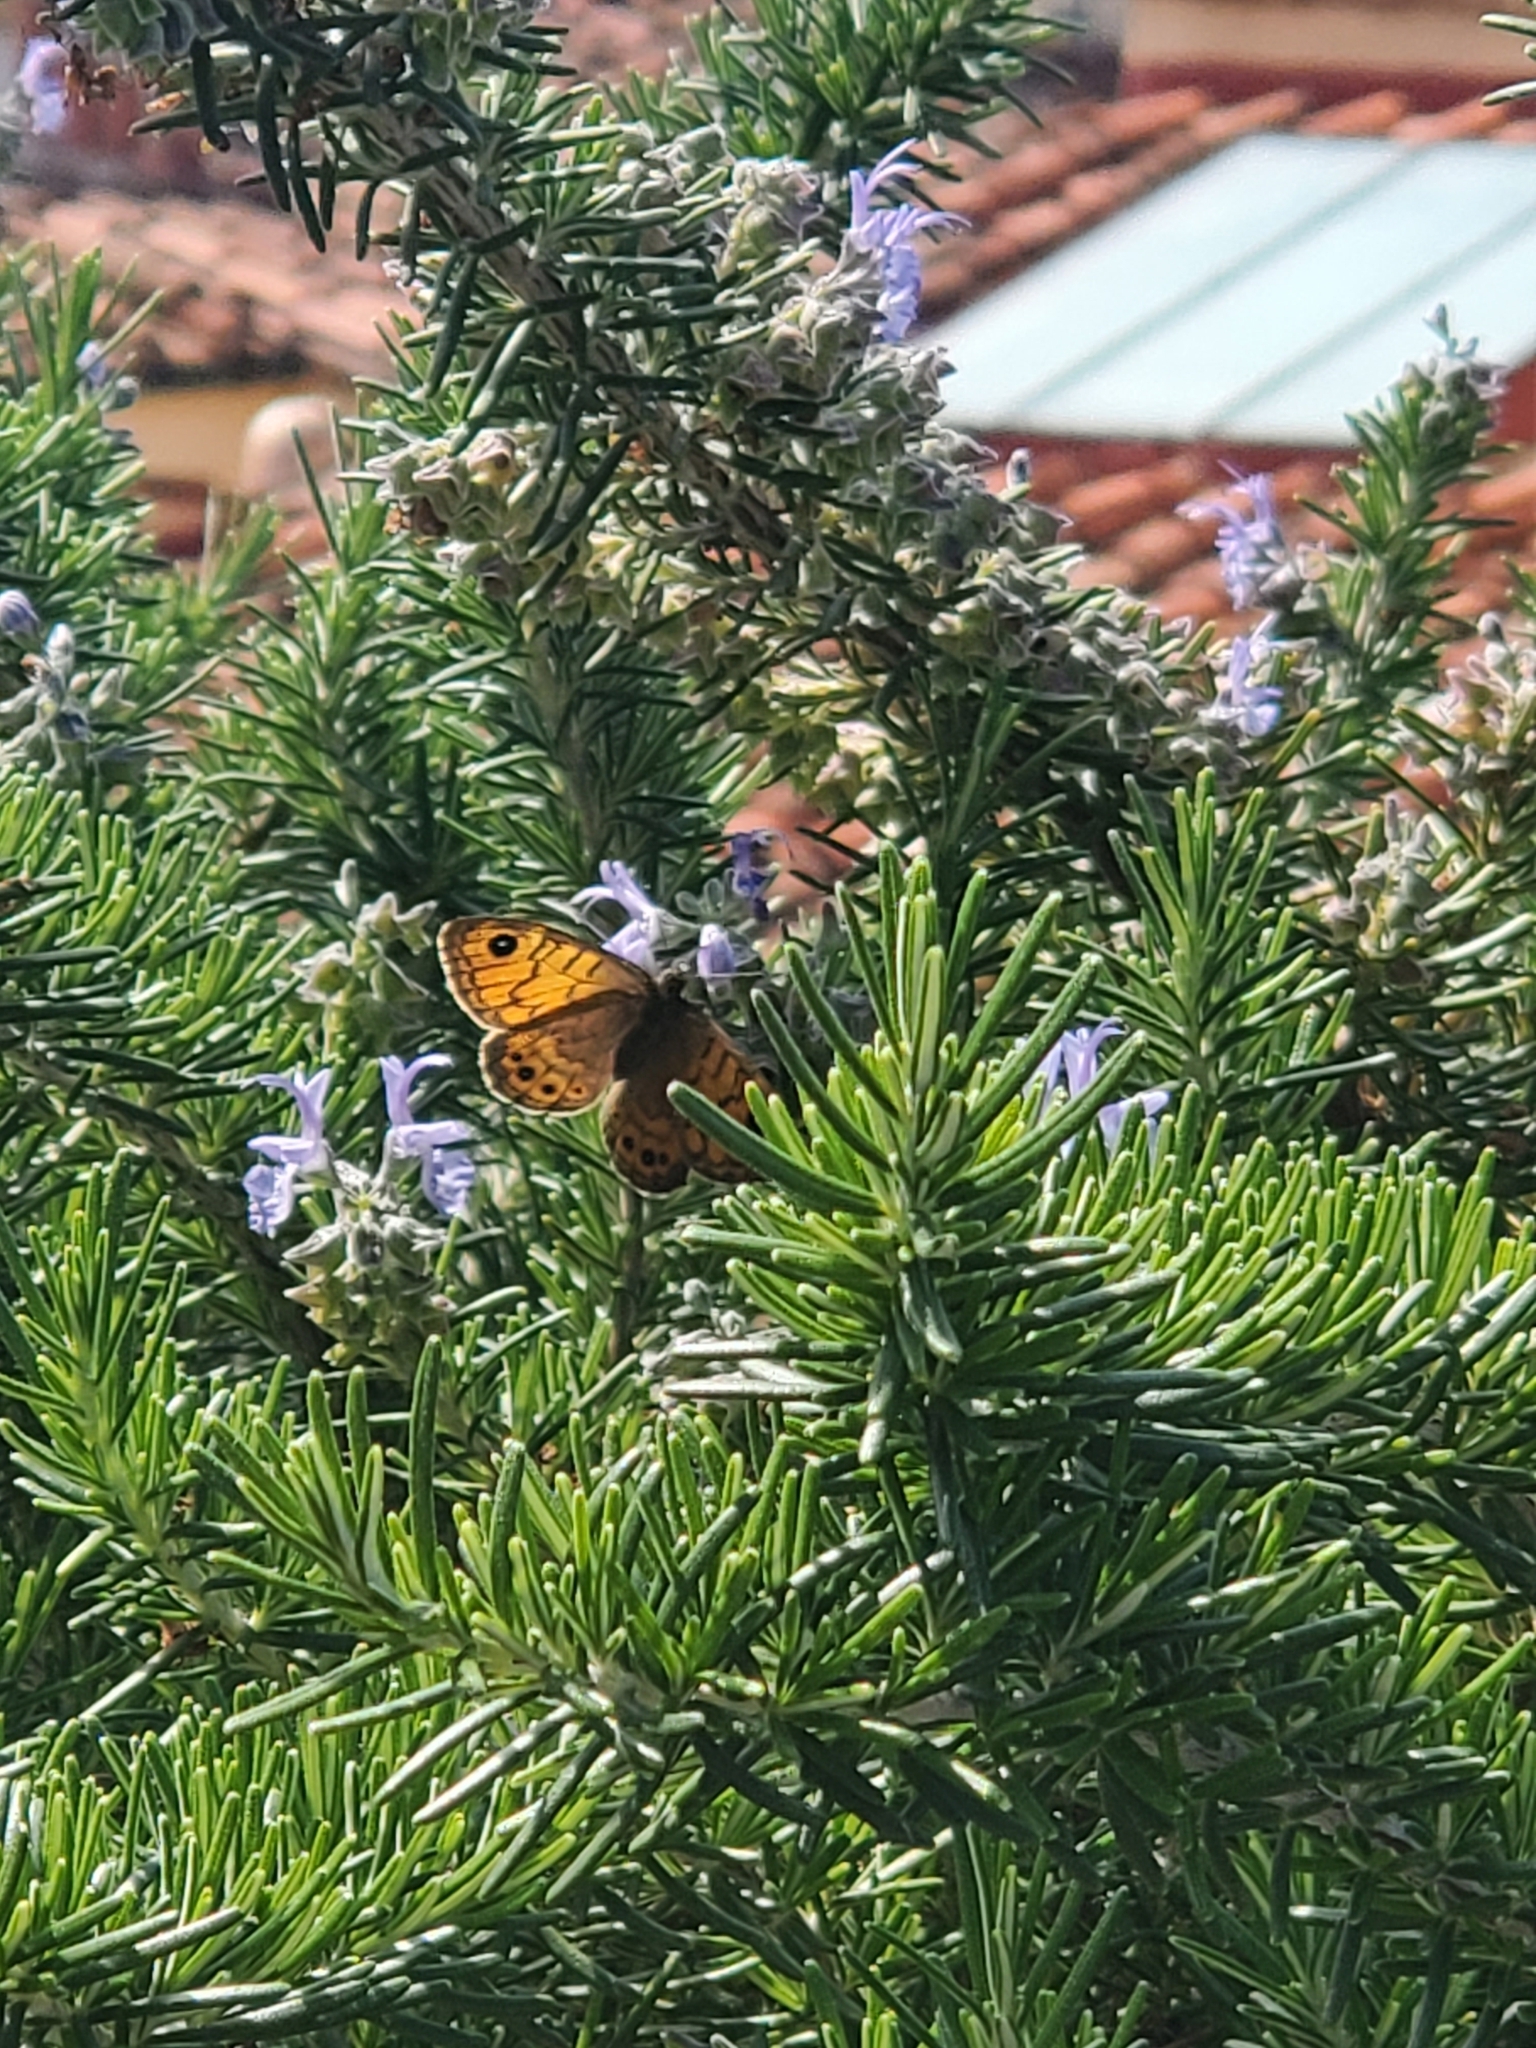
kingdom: Animalia
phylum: Arthropoda
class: Insecta
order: Lepidoptera
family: Nymphalidae
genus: Pararge
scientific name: Pararge Lasiommata megera
